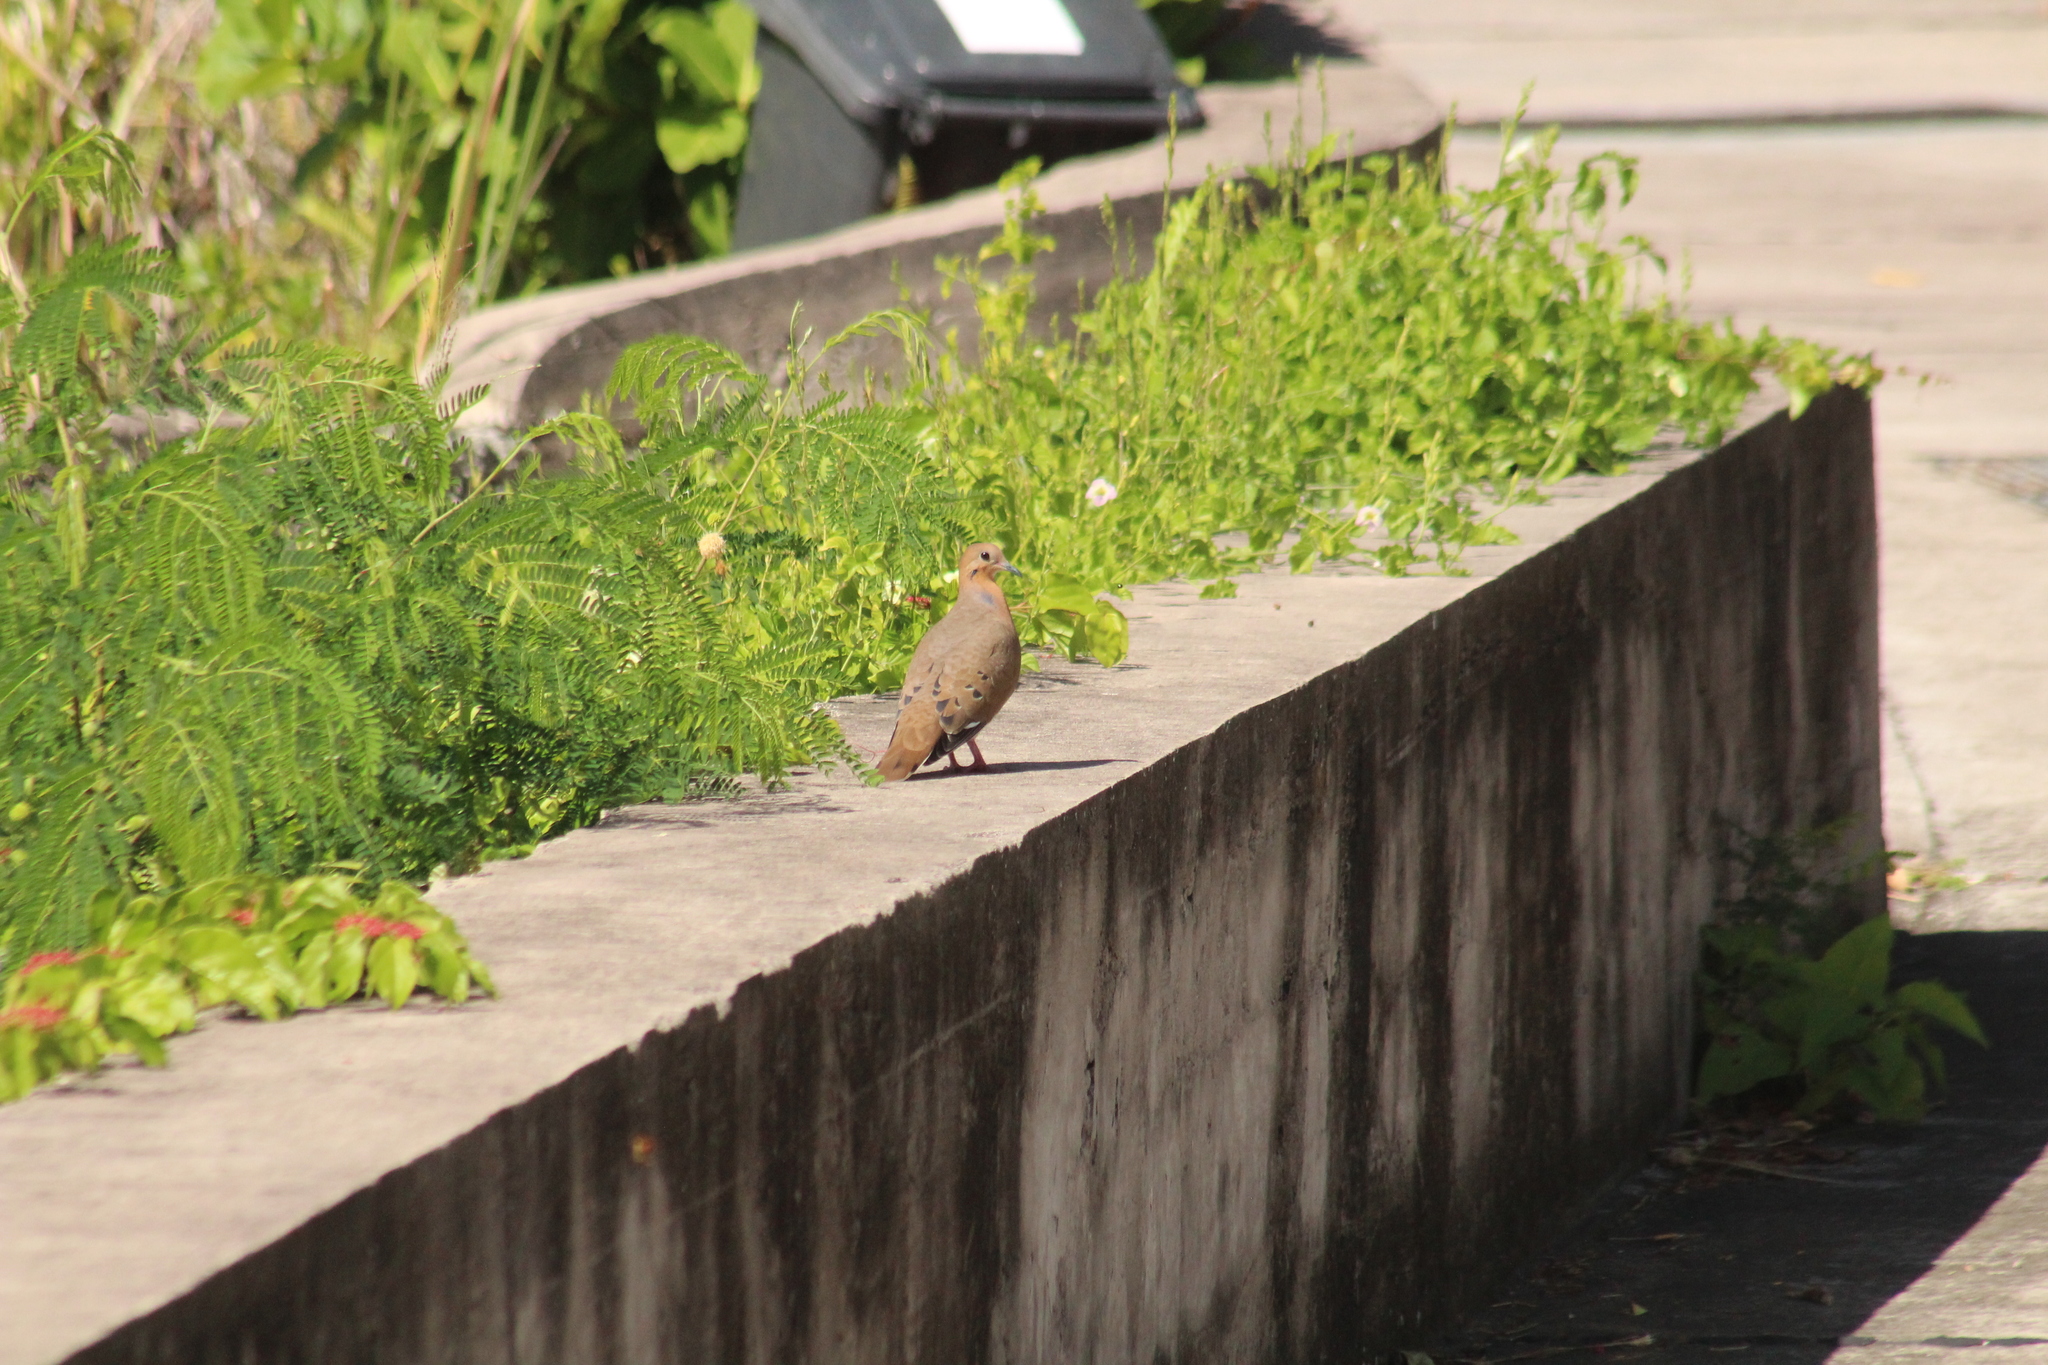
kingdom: Animalia
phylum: Chordata
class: Aves
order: Columbiformes
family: Columbidae
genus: Zenaida
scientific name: Zenaida aurita
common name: Zenaida dove
